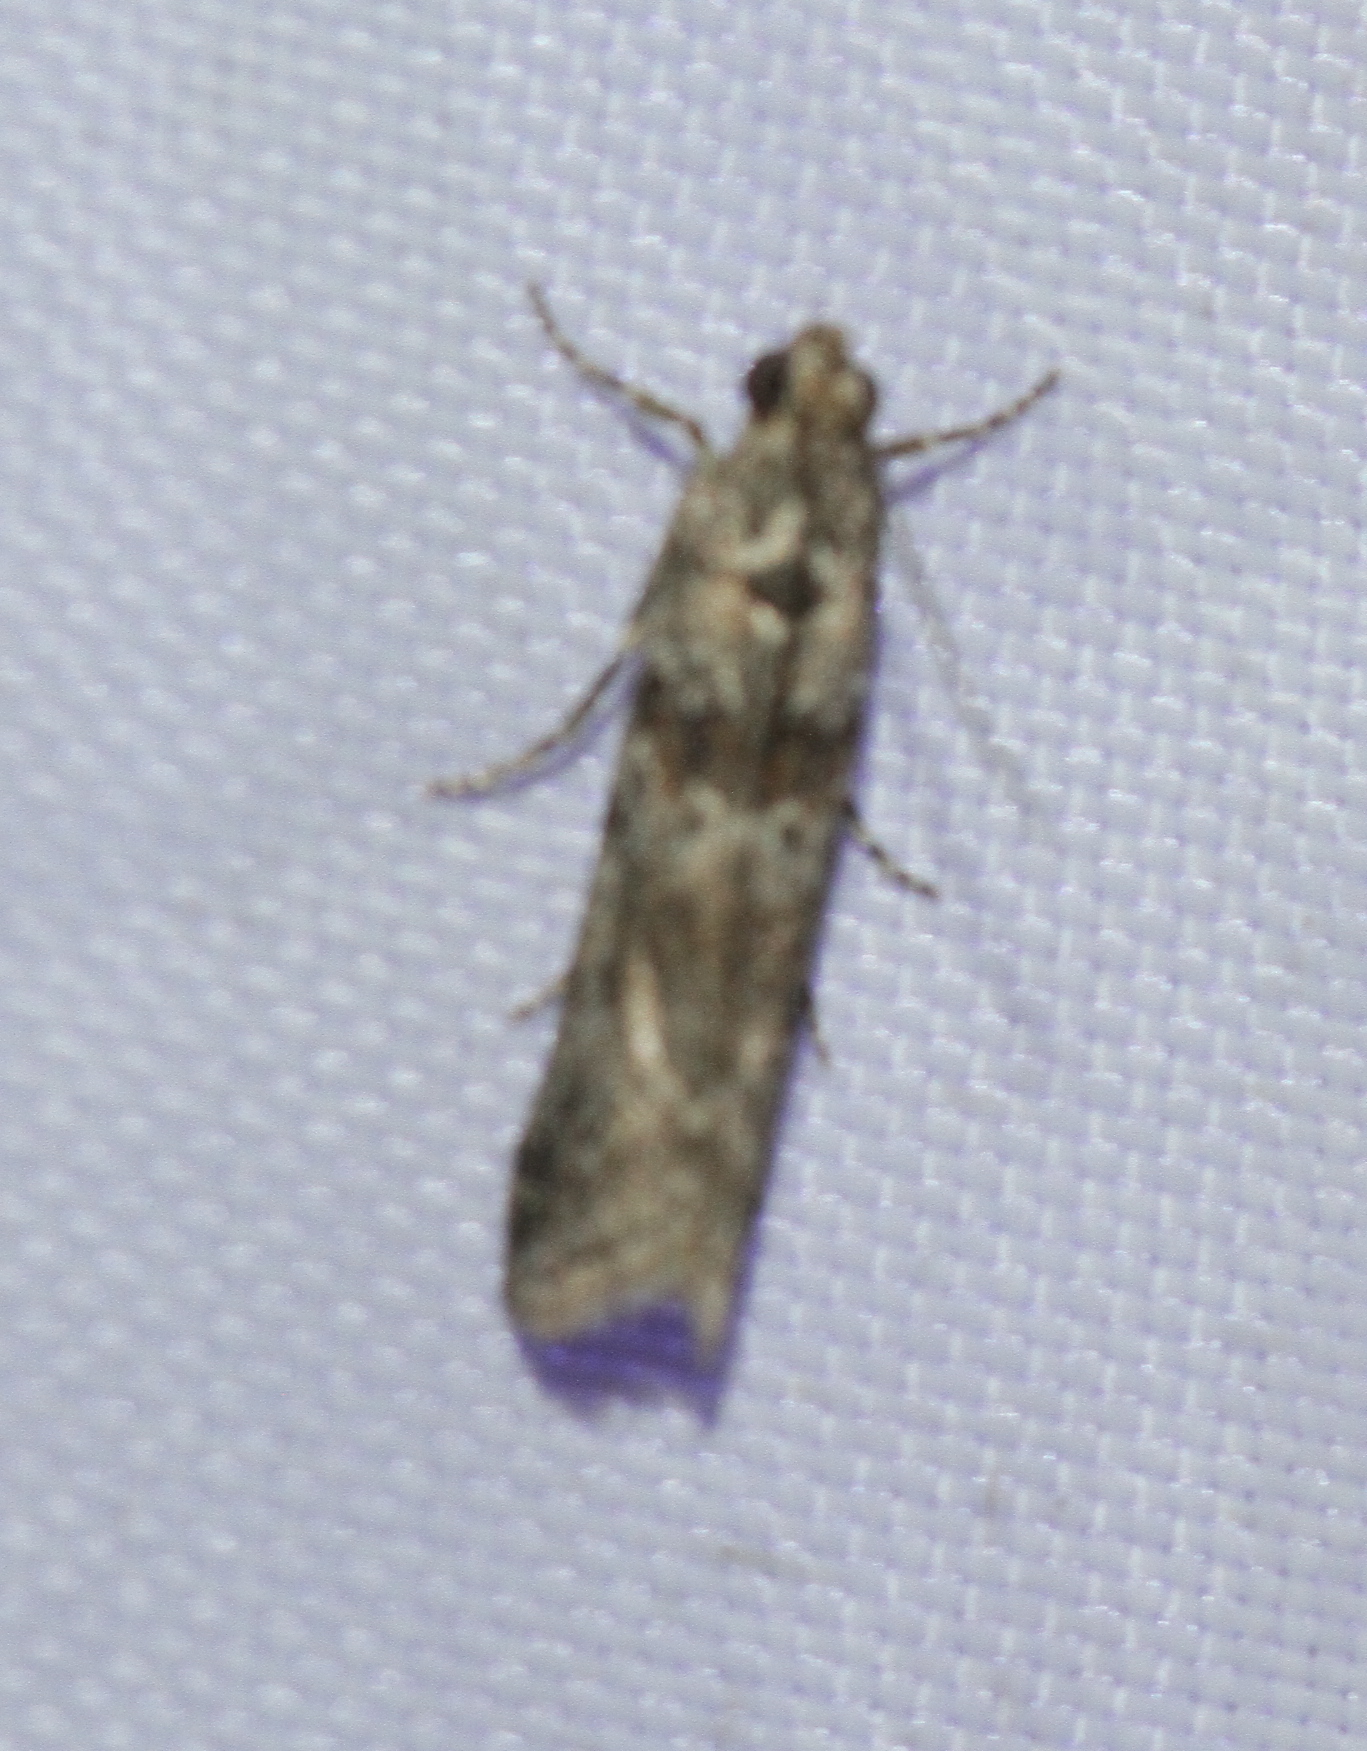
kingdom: Animalia
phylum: Arthropoda
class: Insecta
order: Lepidoptera
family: Pyralidae
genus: Ancylosis
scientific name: Ancylosis oblitella
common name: Saltmarsh knot-horn
